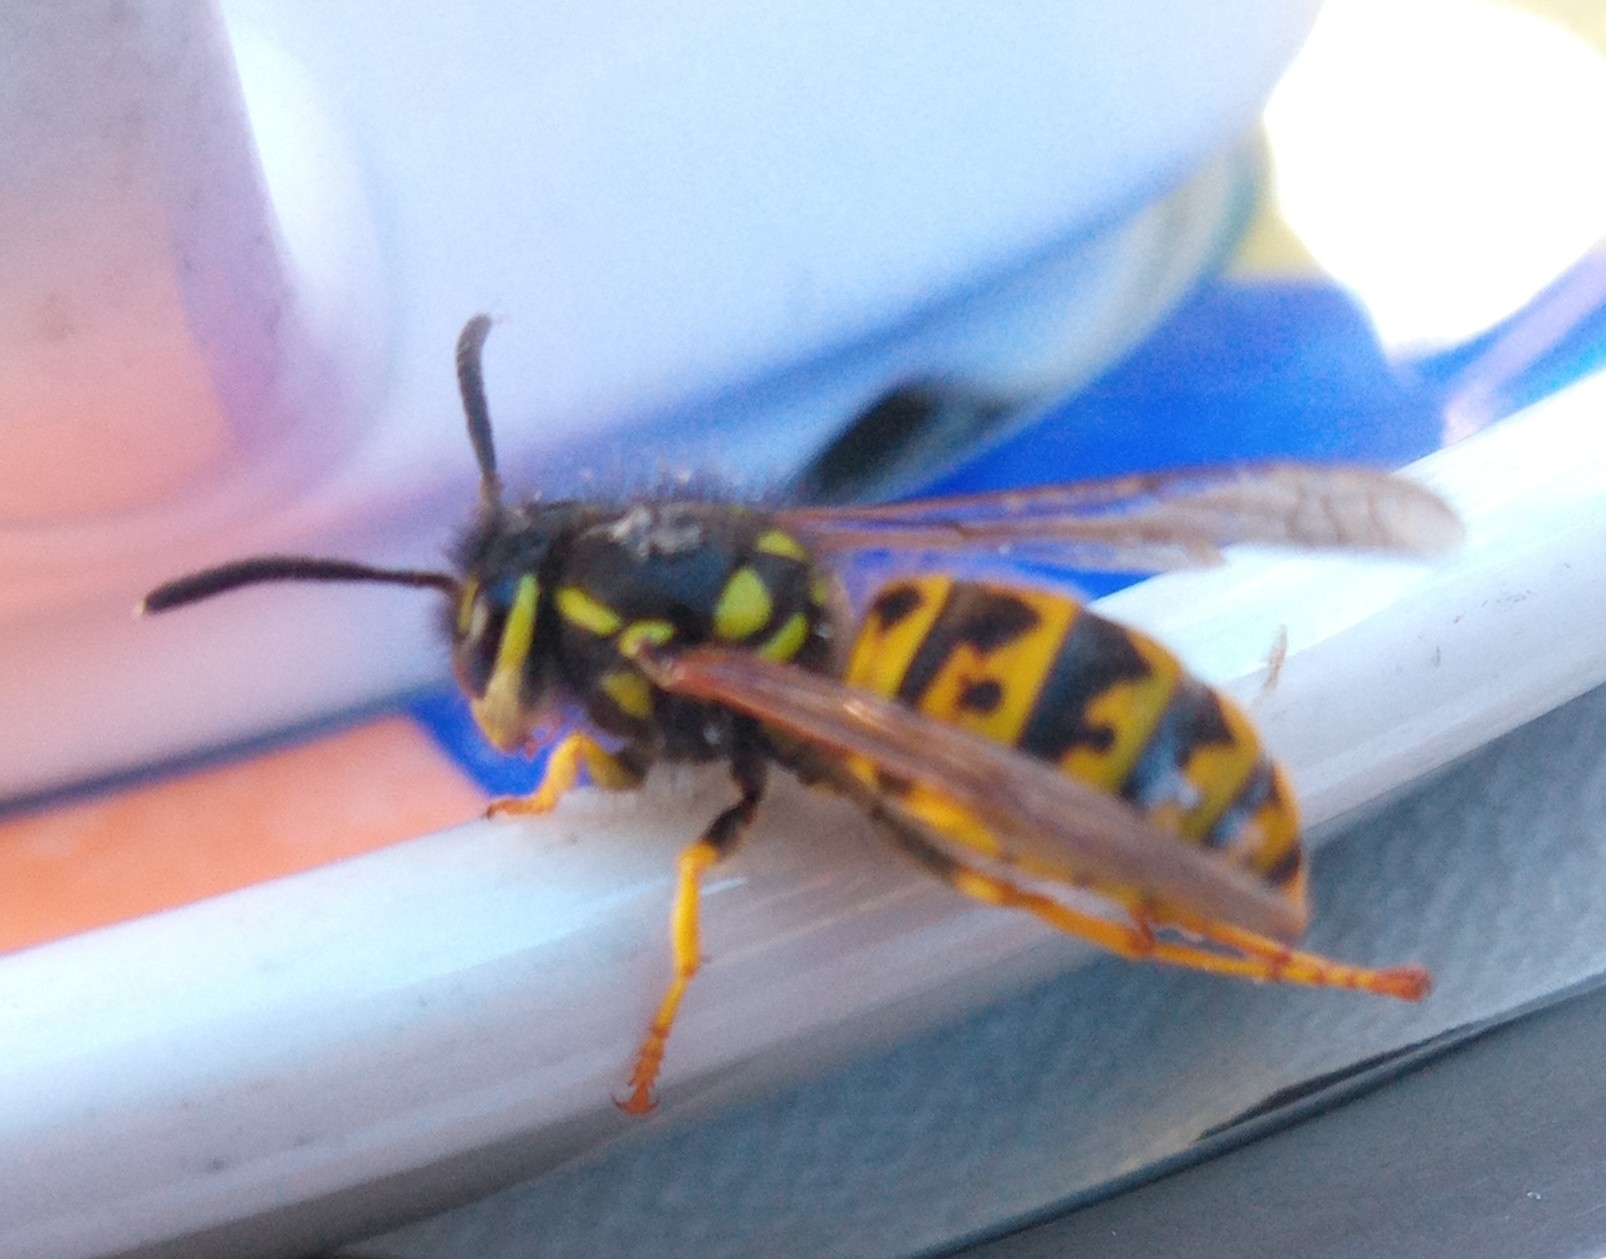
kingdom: Animalia
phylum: Arthropoda
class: Insecta
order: Hymenoptera
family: Vespidae
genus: Vespula
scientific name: Vespula germanica
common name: German wasp
